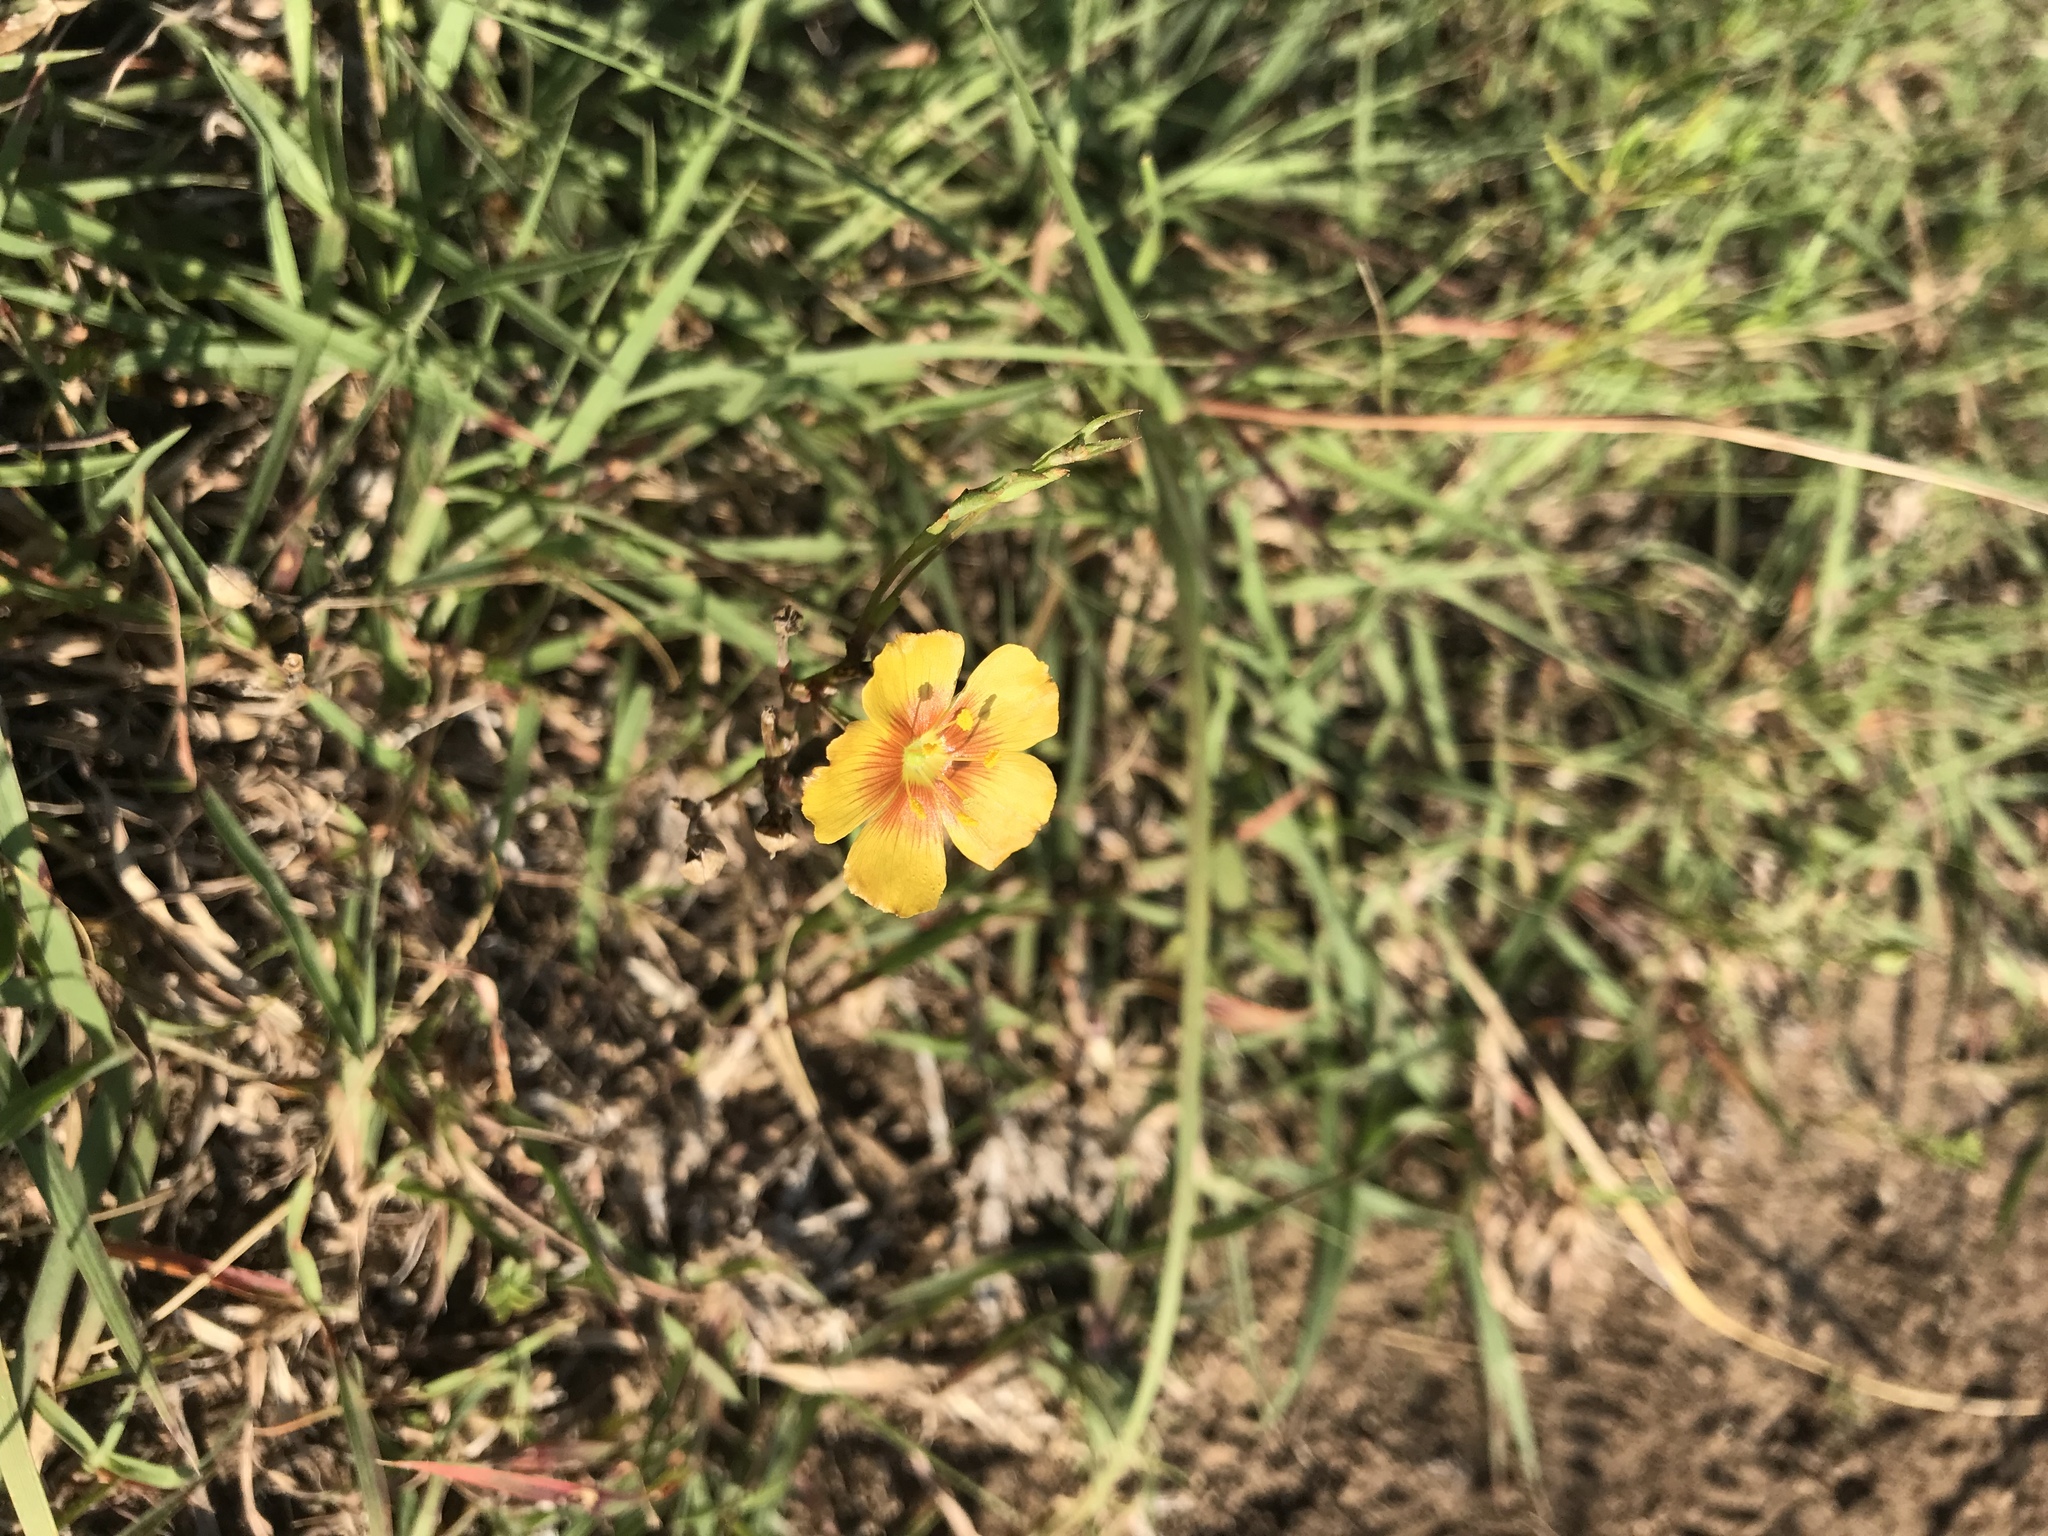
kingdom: Plantae
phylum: Tracheophyta
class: Magnoliopsida
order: Malpighiales
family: Linaceae
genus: Linum
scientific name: Linum rigidum
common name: Stiff-stem flax
